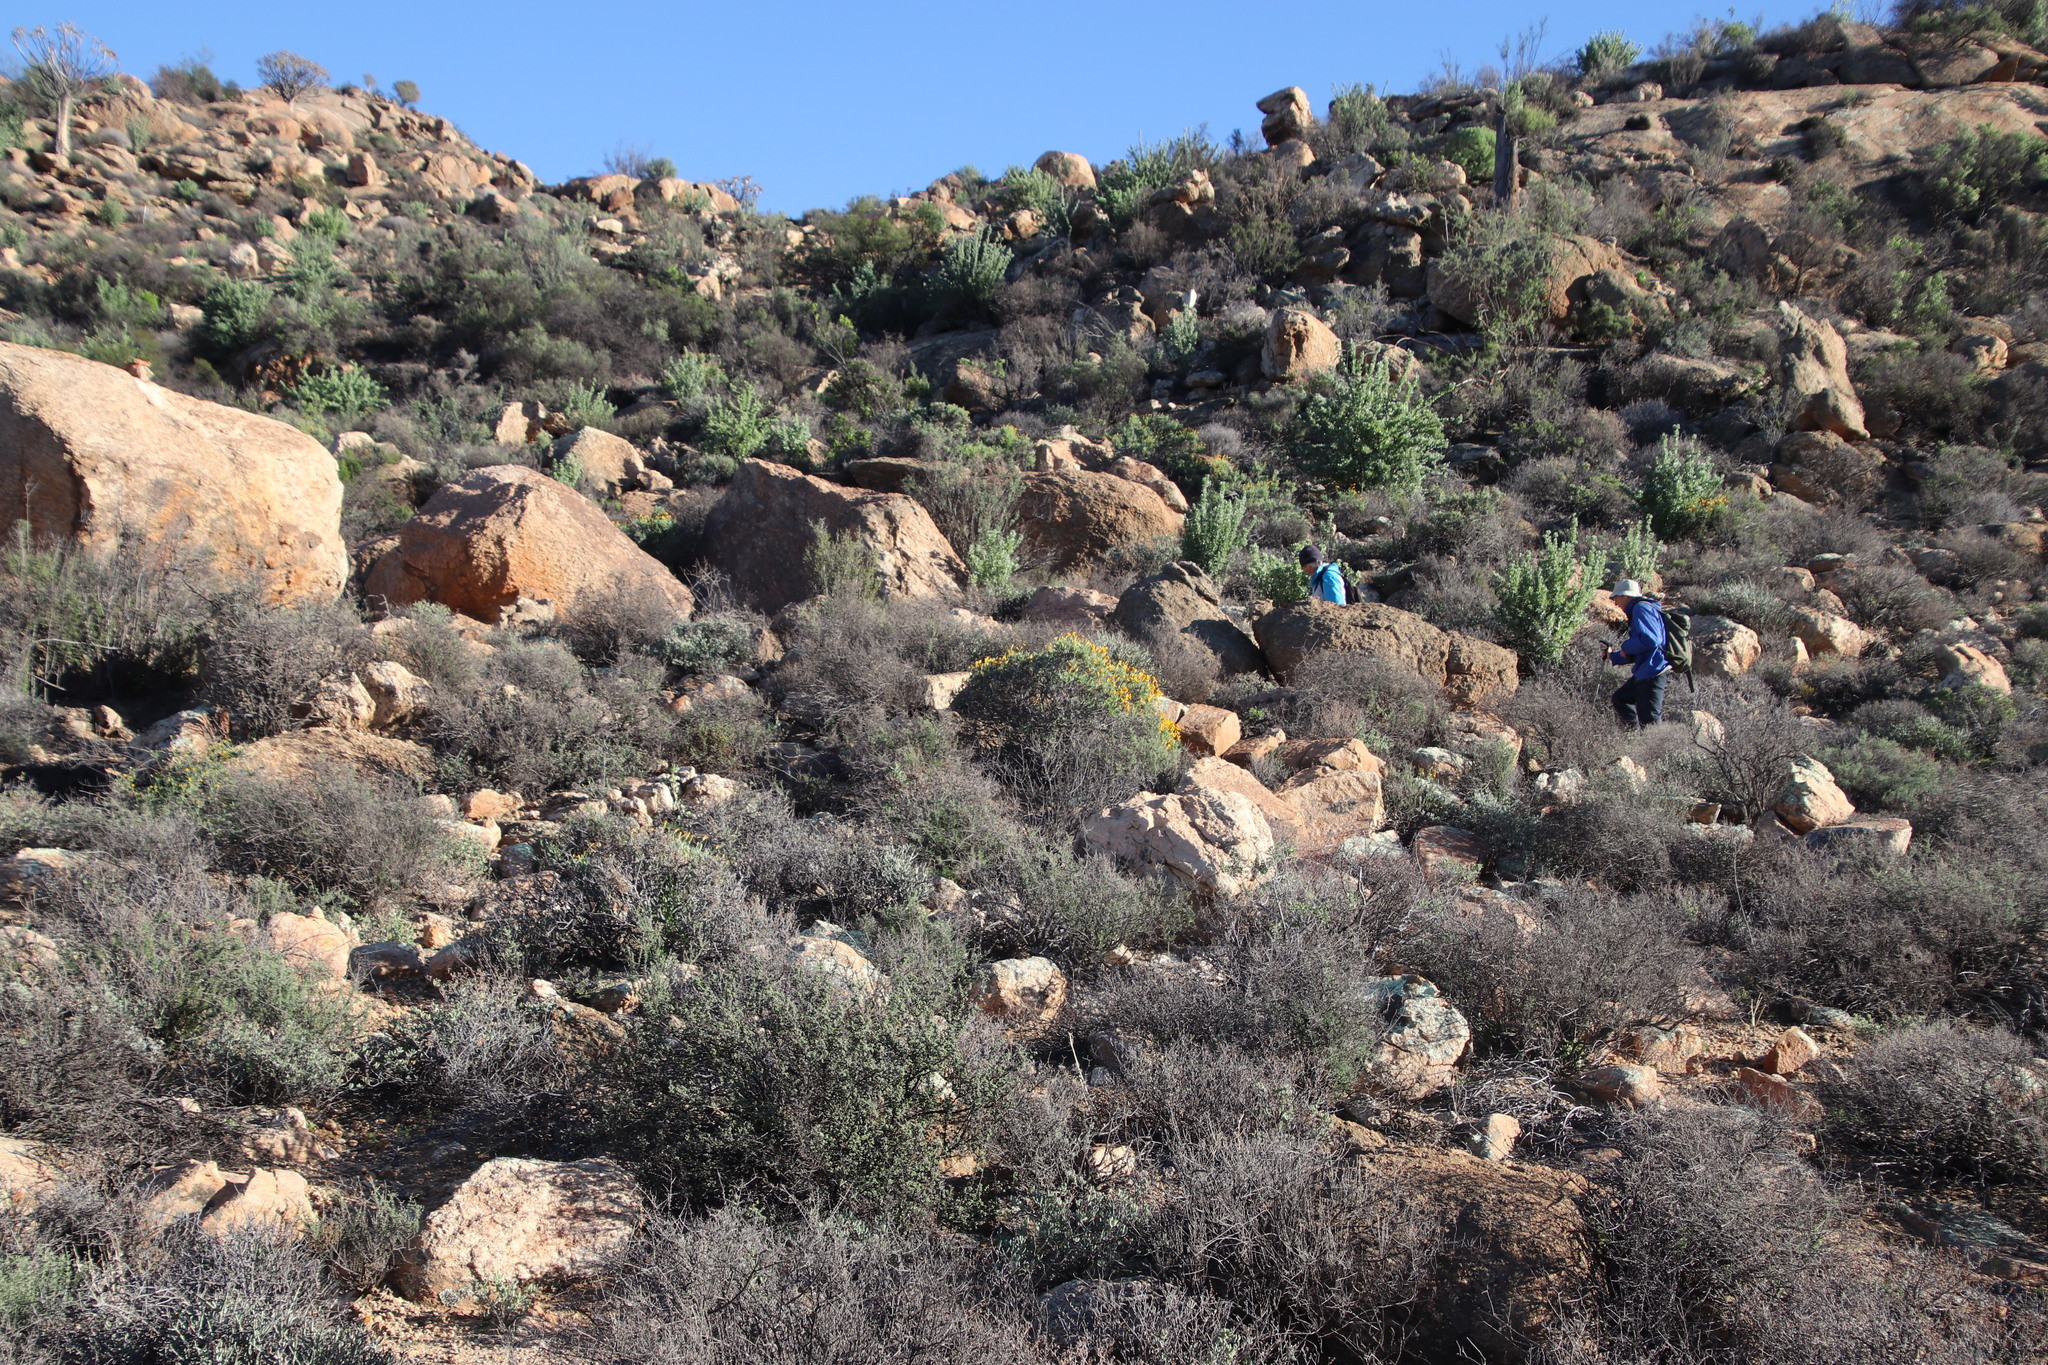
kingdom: Plantae
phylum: Tracheophyta
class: Magnoliopsida
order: Asterales
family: Asteraceae
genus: Osteospermum
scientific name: Osteospermum oppositifolium
